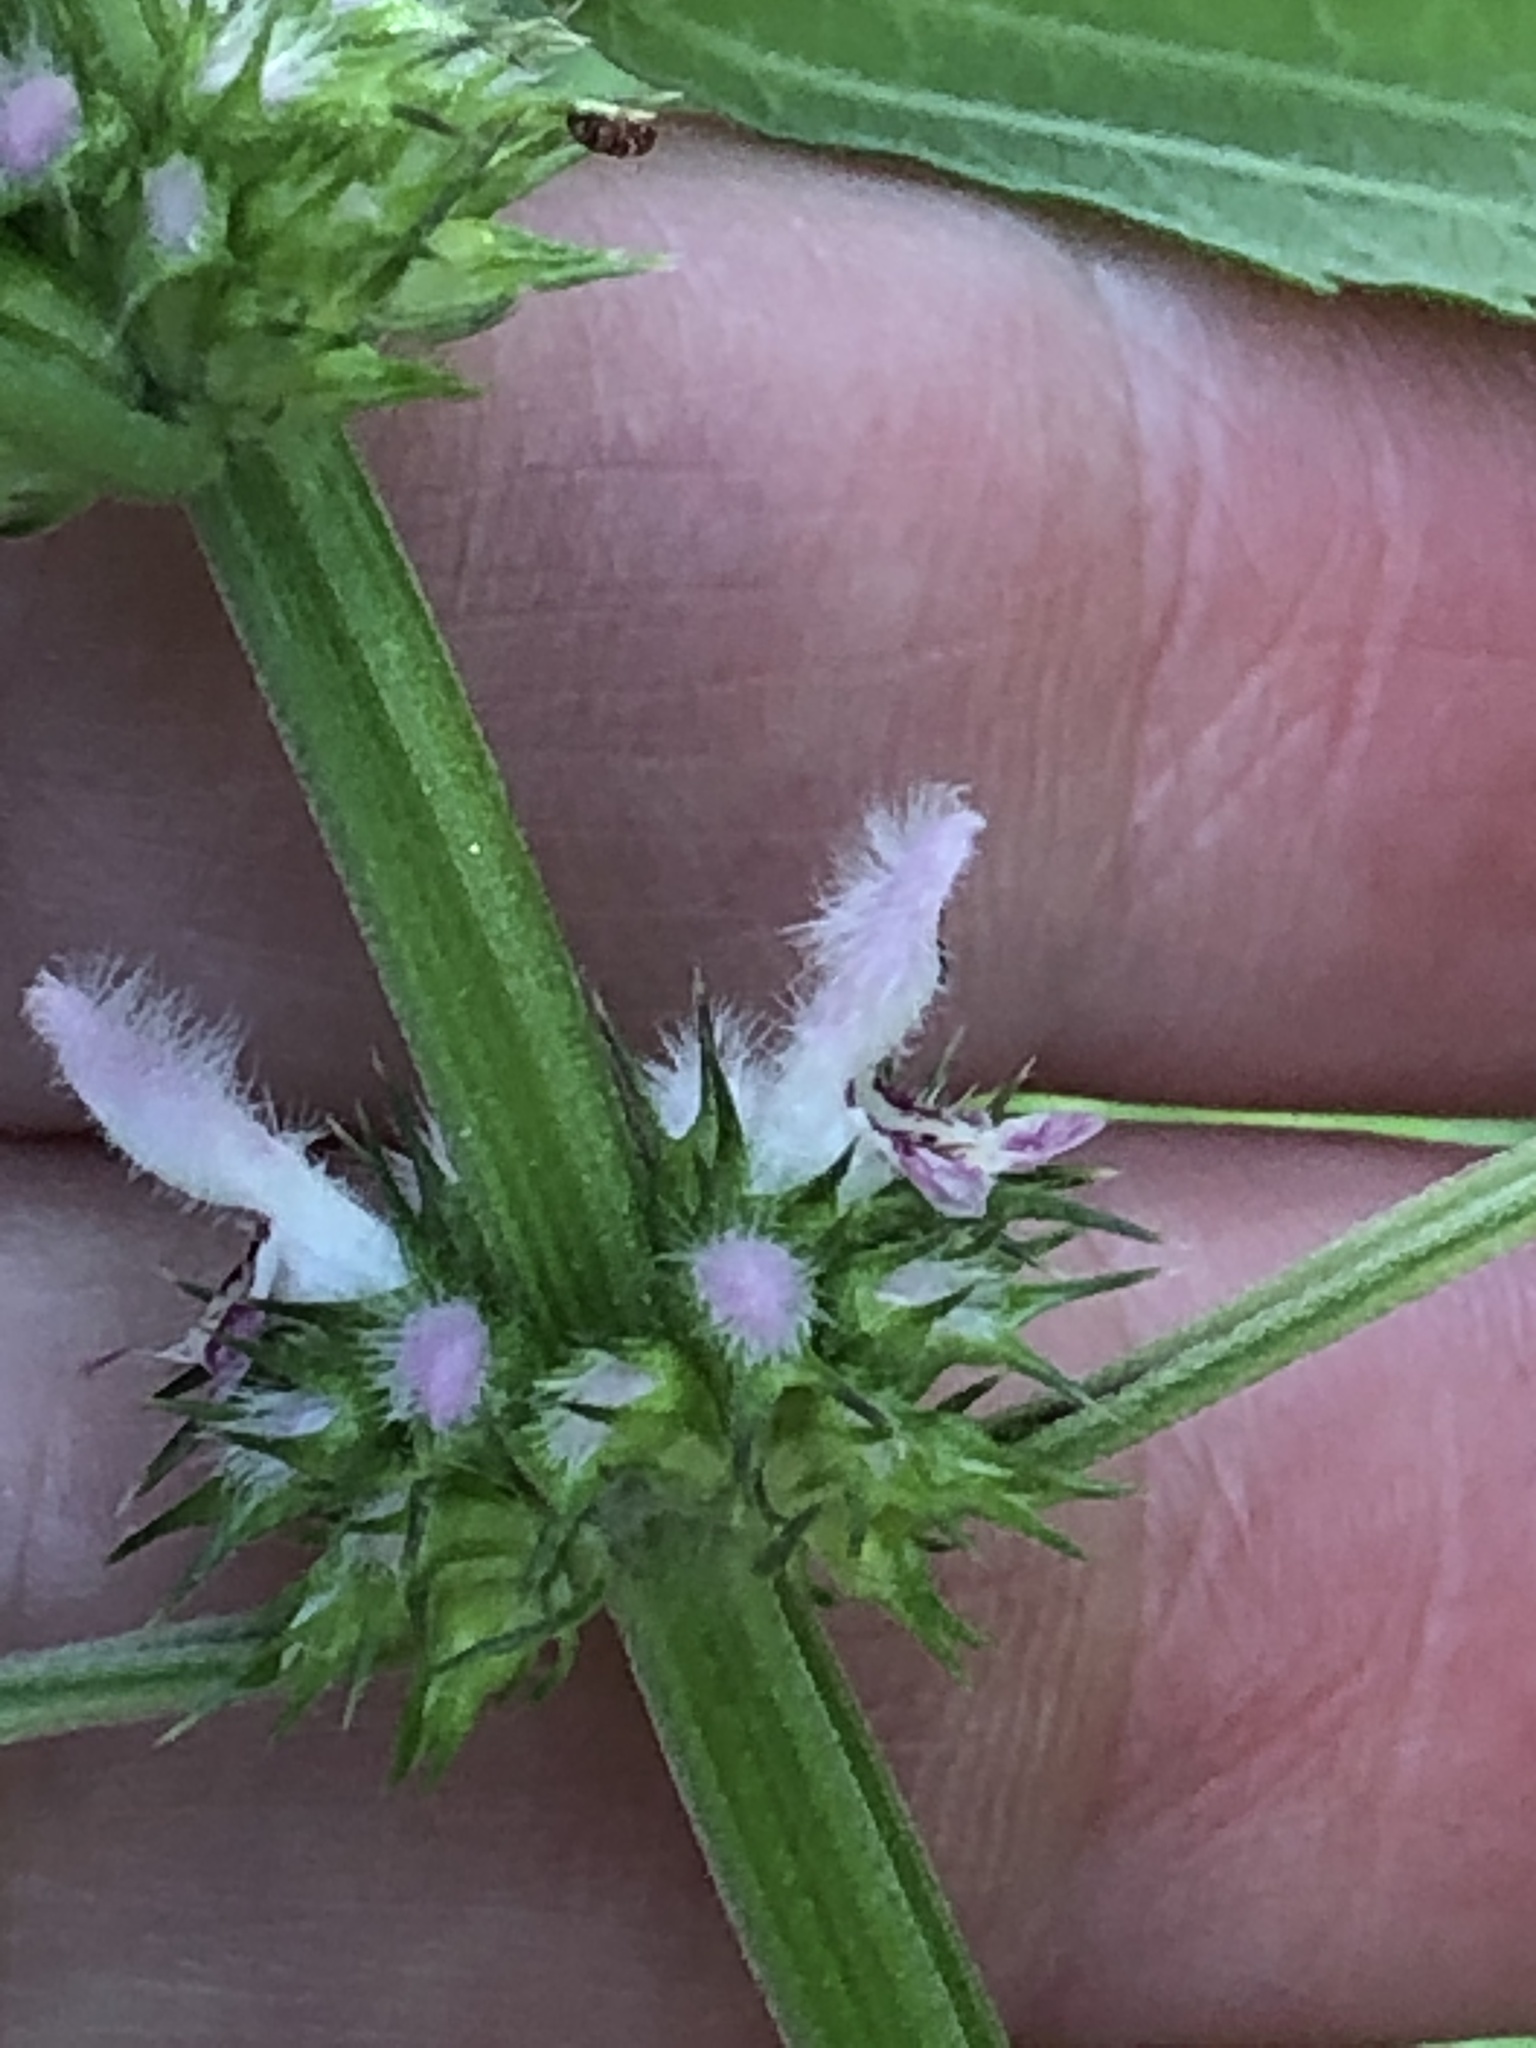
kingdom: Plantae
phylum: Tracheophyta
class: Magnoliopsida
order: Lamiales
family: Lamiaceae
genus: Leonurus
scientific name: Leonurus cardiaca
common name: Motherwort
